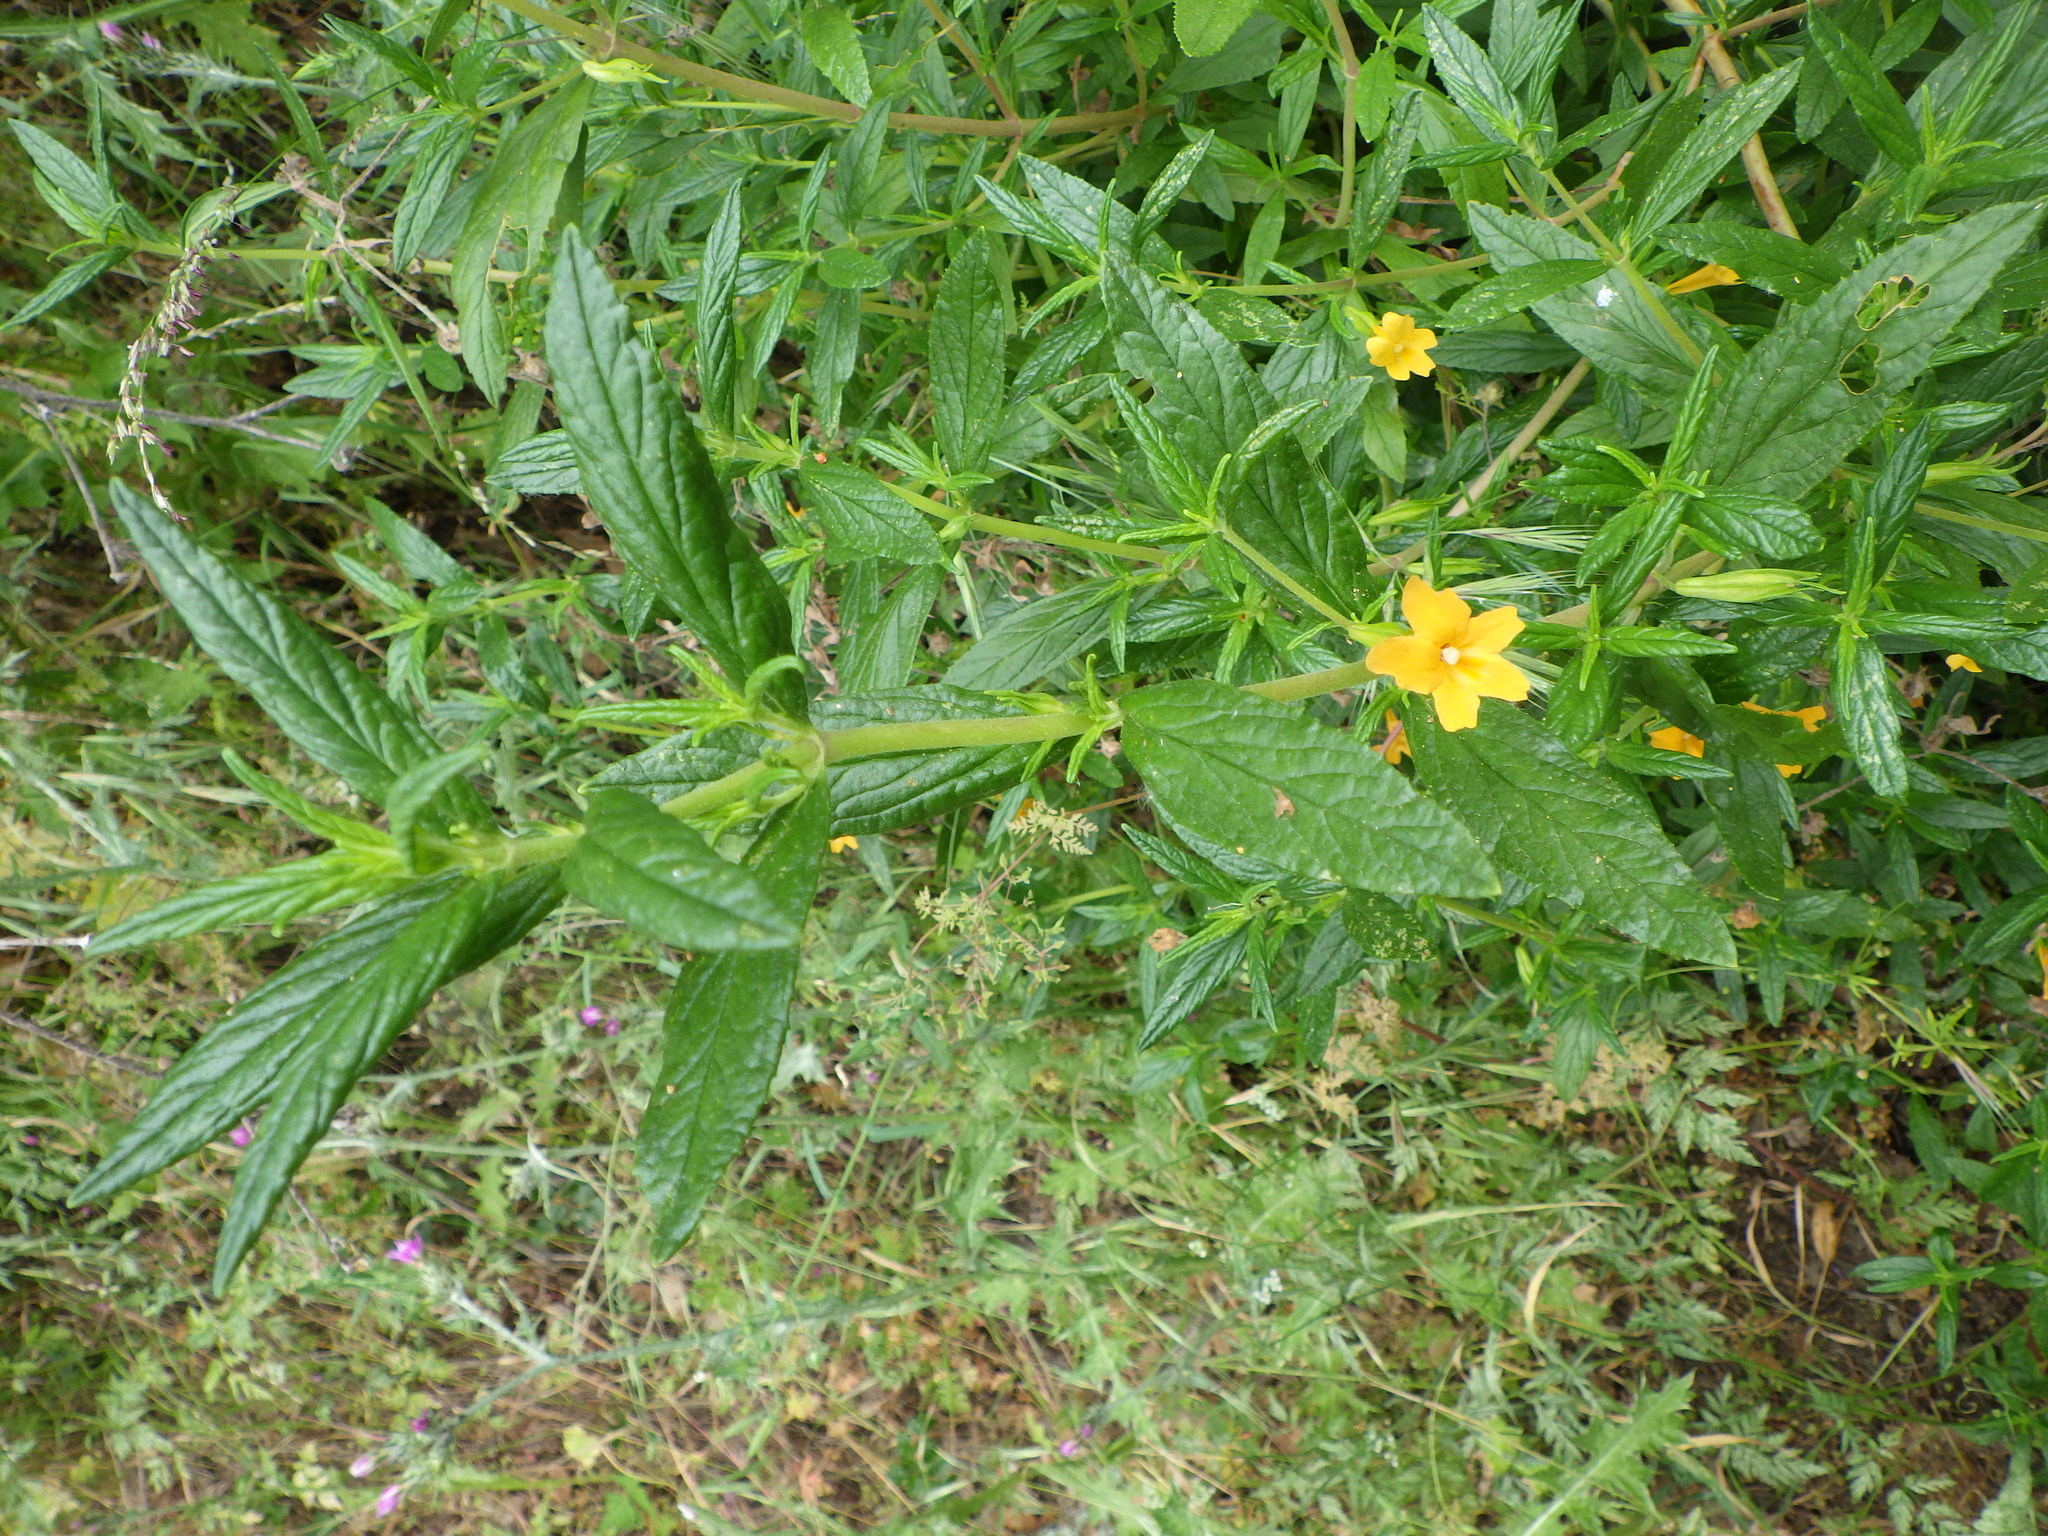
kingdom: Plantae
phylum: Tracheophyta
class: Magnoliopsida
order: Lamiales
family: Phrymaceae
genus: Diplacus
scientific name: Diplacus aurantiacus
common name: Bush monkey-flower
